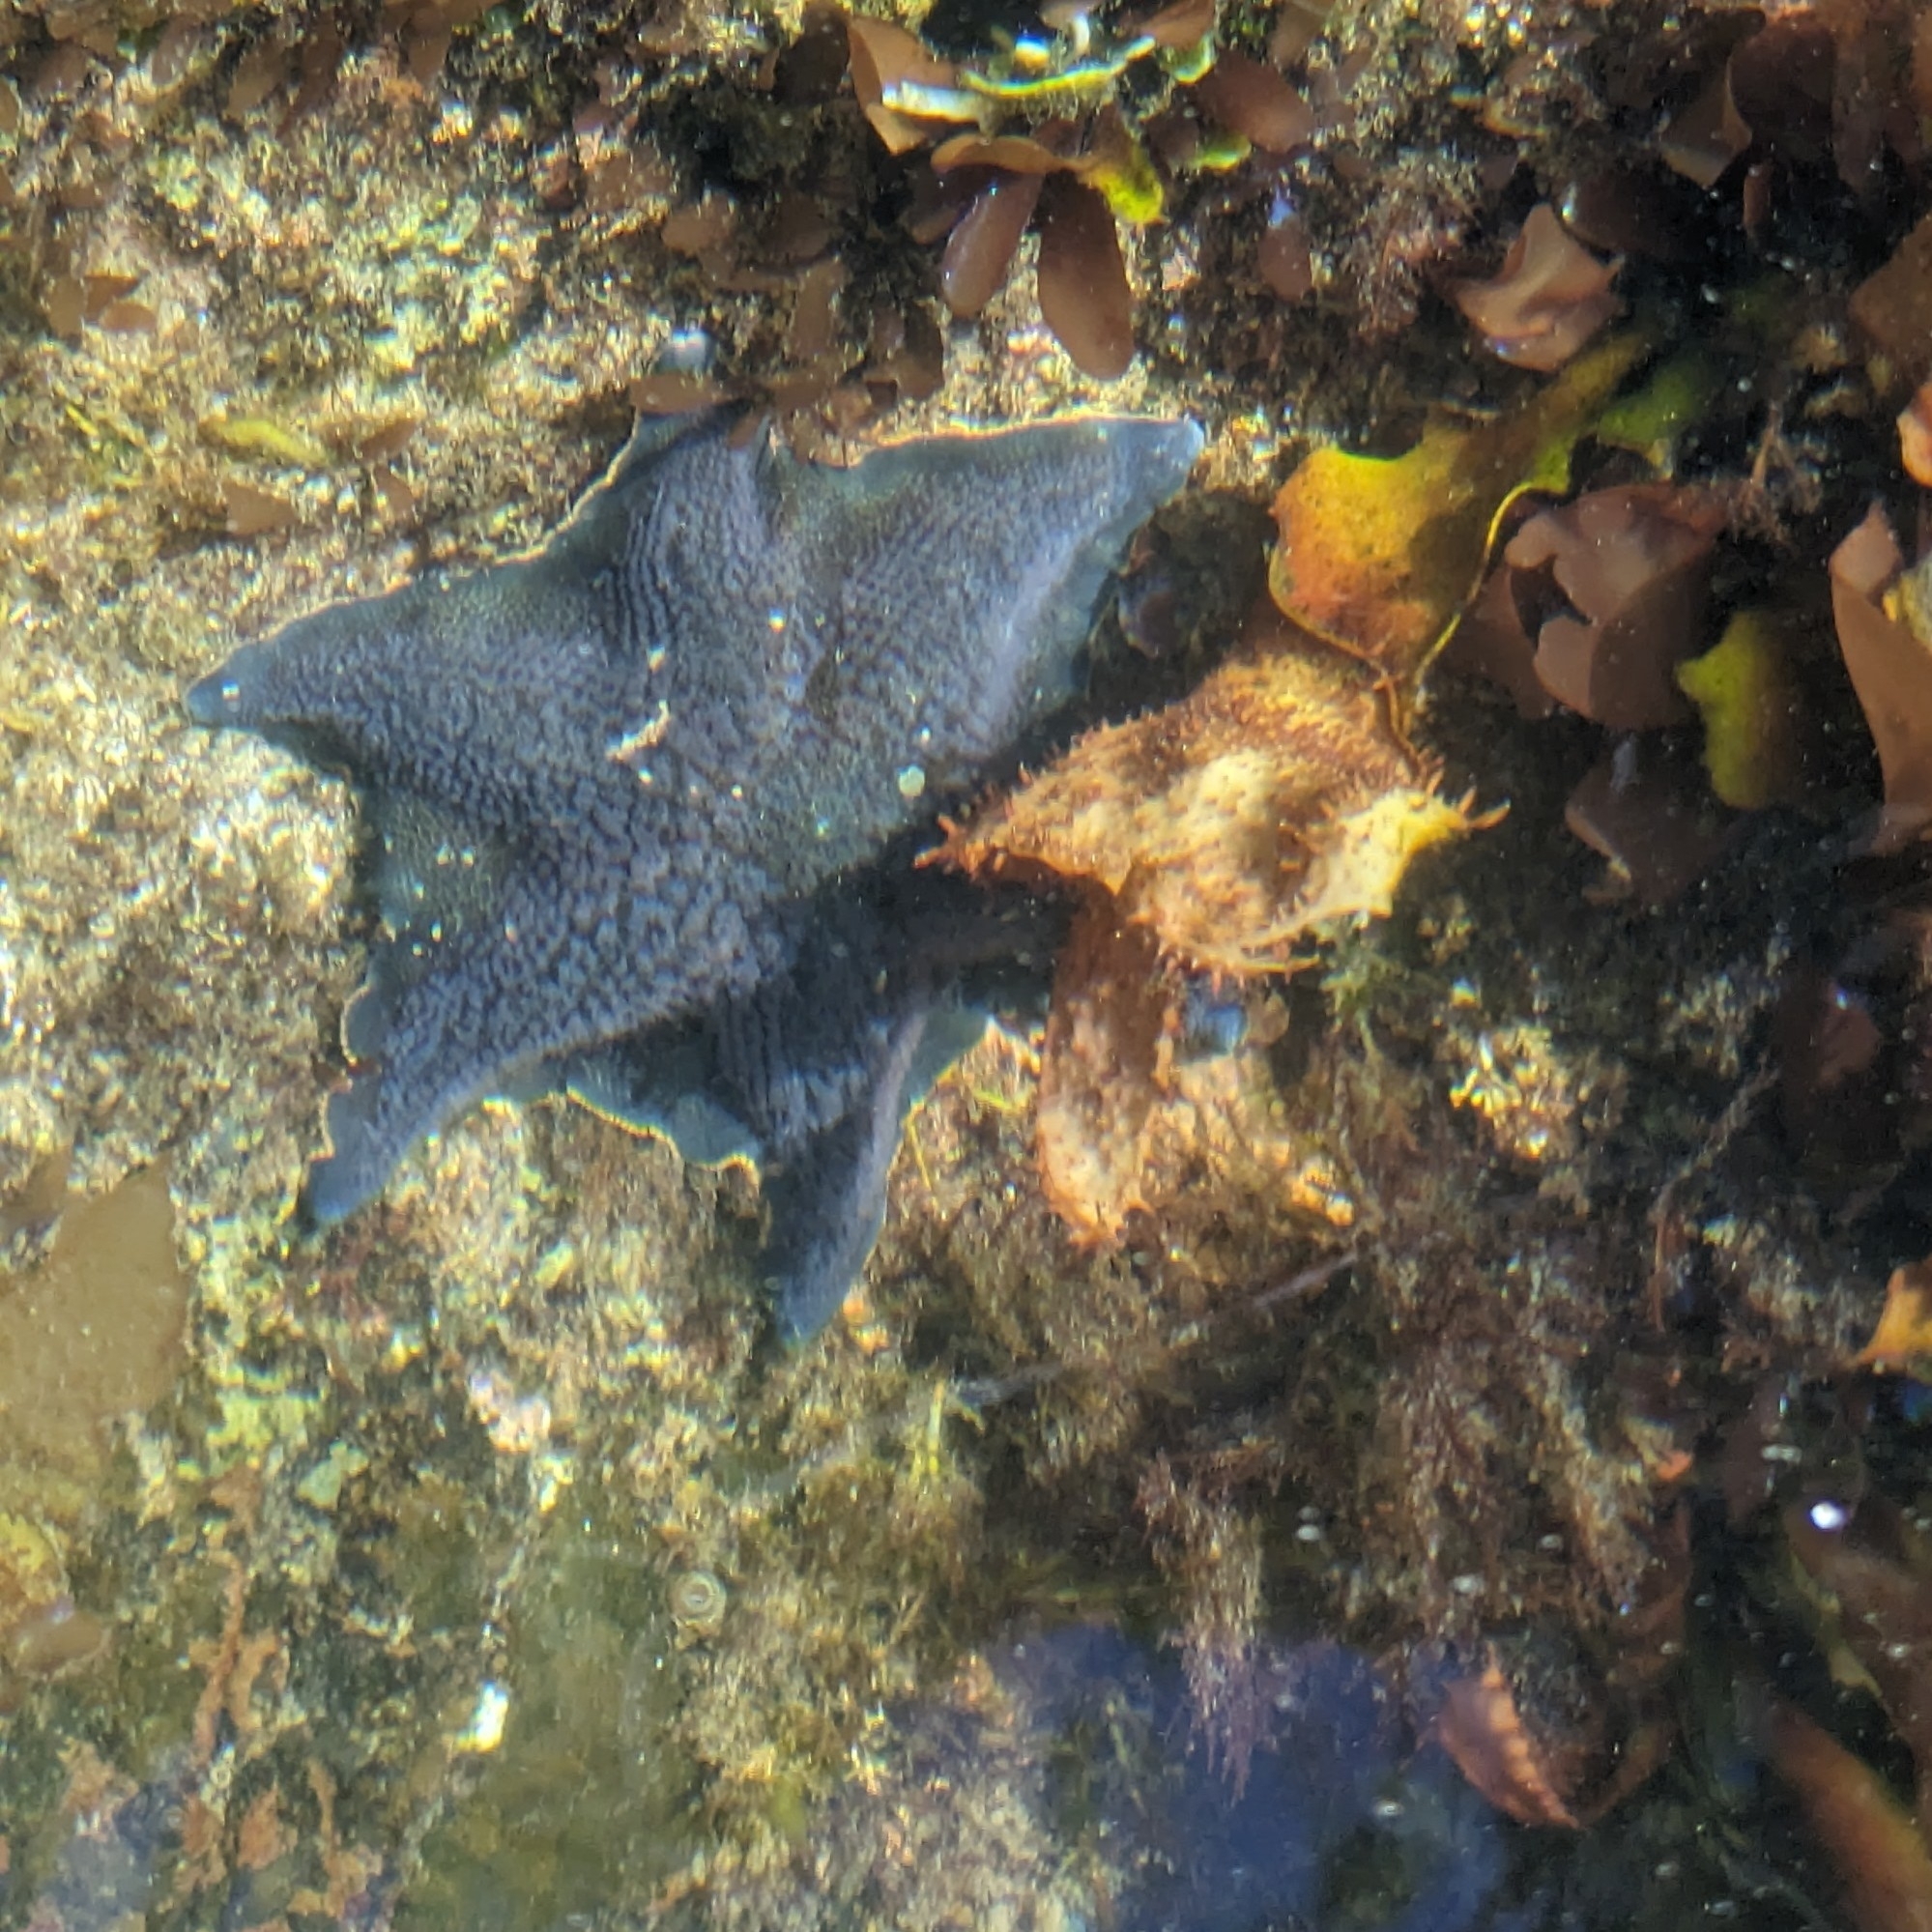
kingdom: Animalia
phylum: Echinodermata
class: Asteroidea
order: Valvatida
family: Asterinidae
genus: Patiria
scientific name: Patiria miniata
